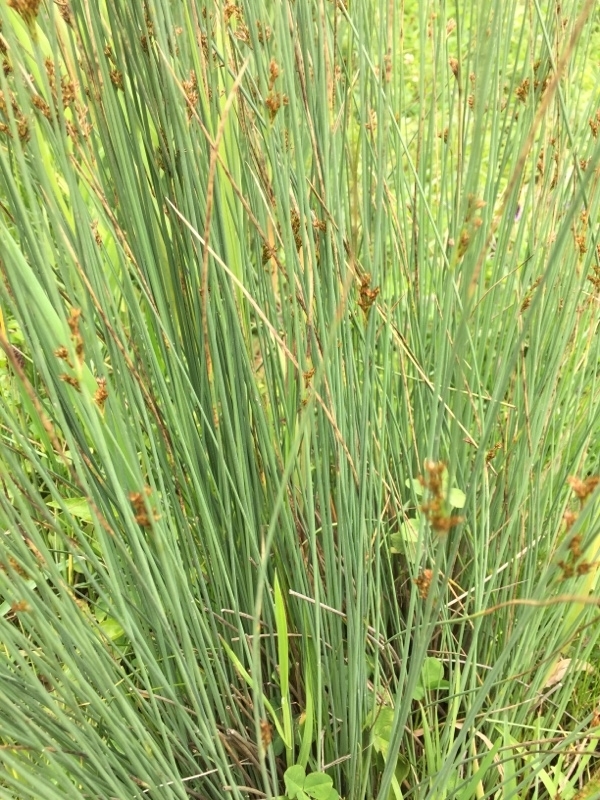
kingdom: Plantae
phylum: Tracheophyta
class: Liliopsida
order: Poales
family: Juncaceae
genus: Juncus
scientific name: Juncus inflexus
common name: Hard rush
